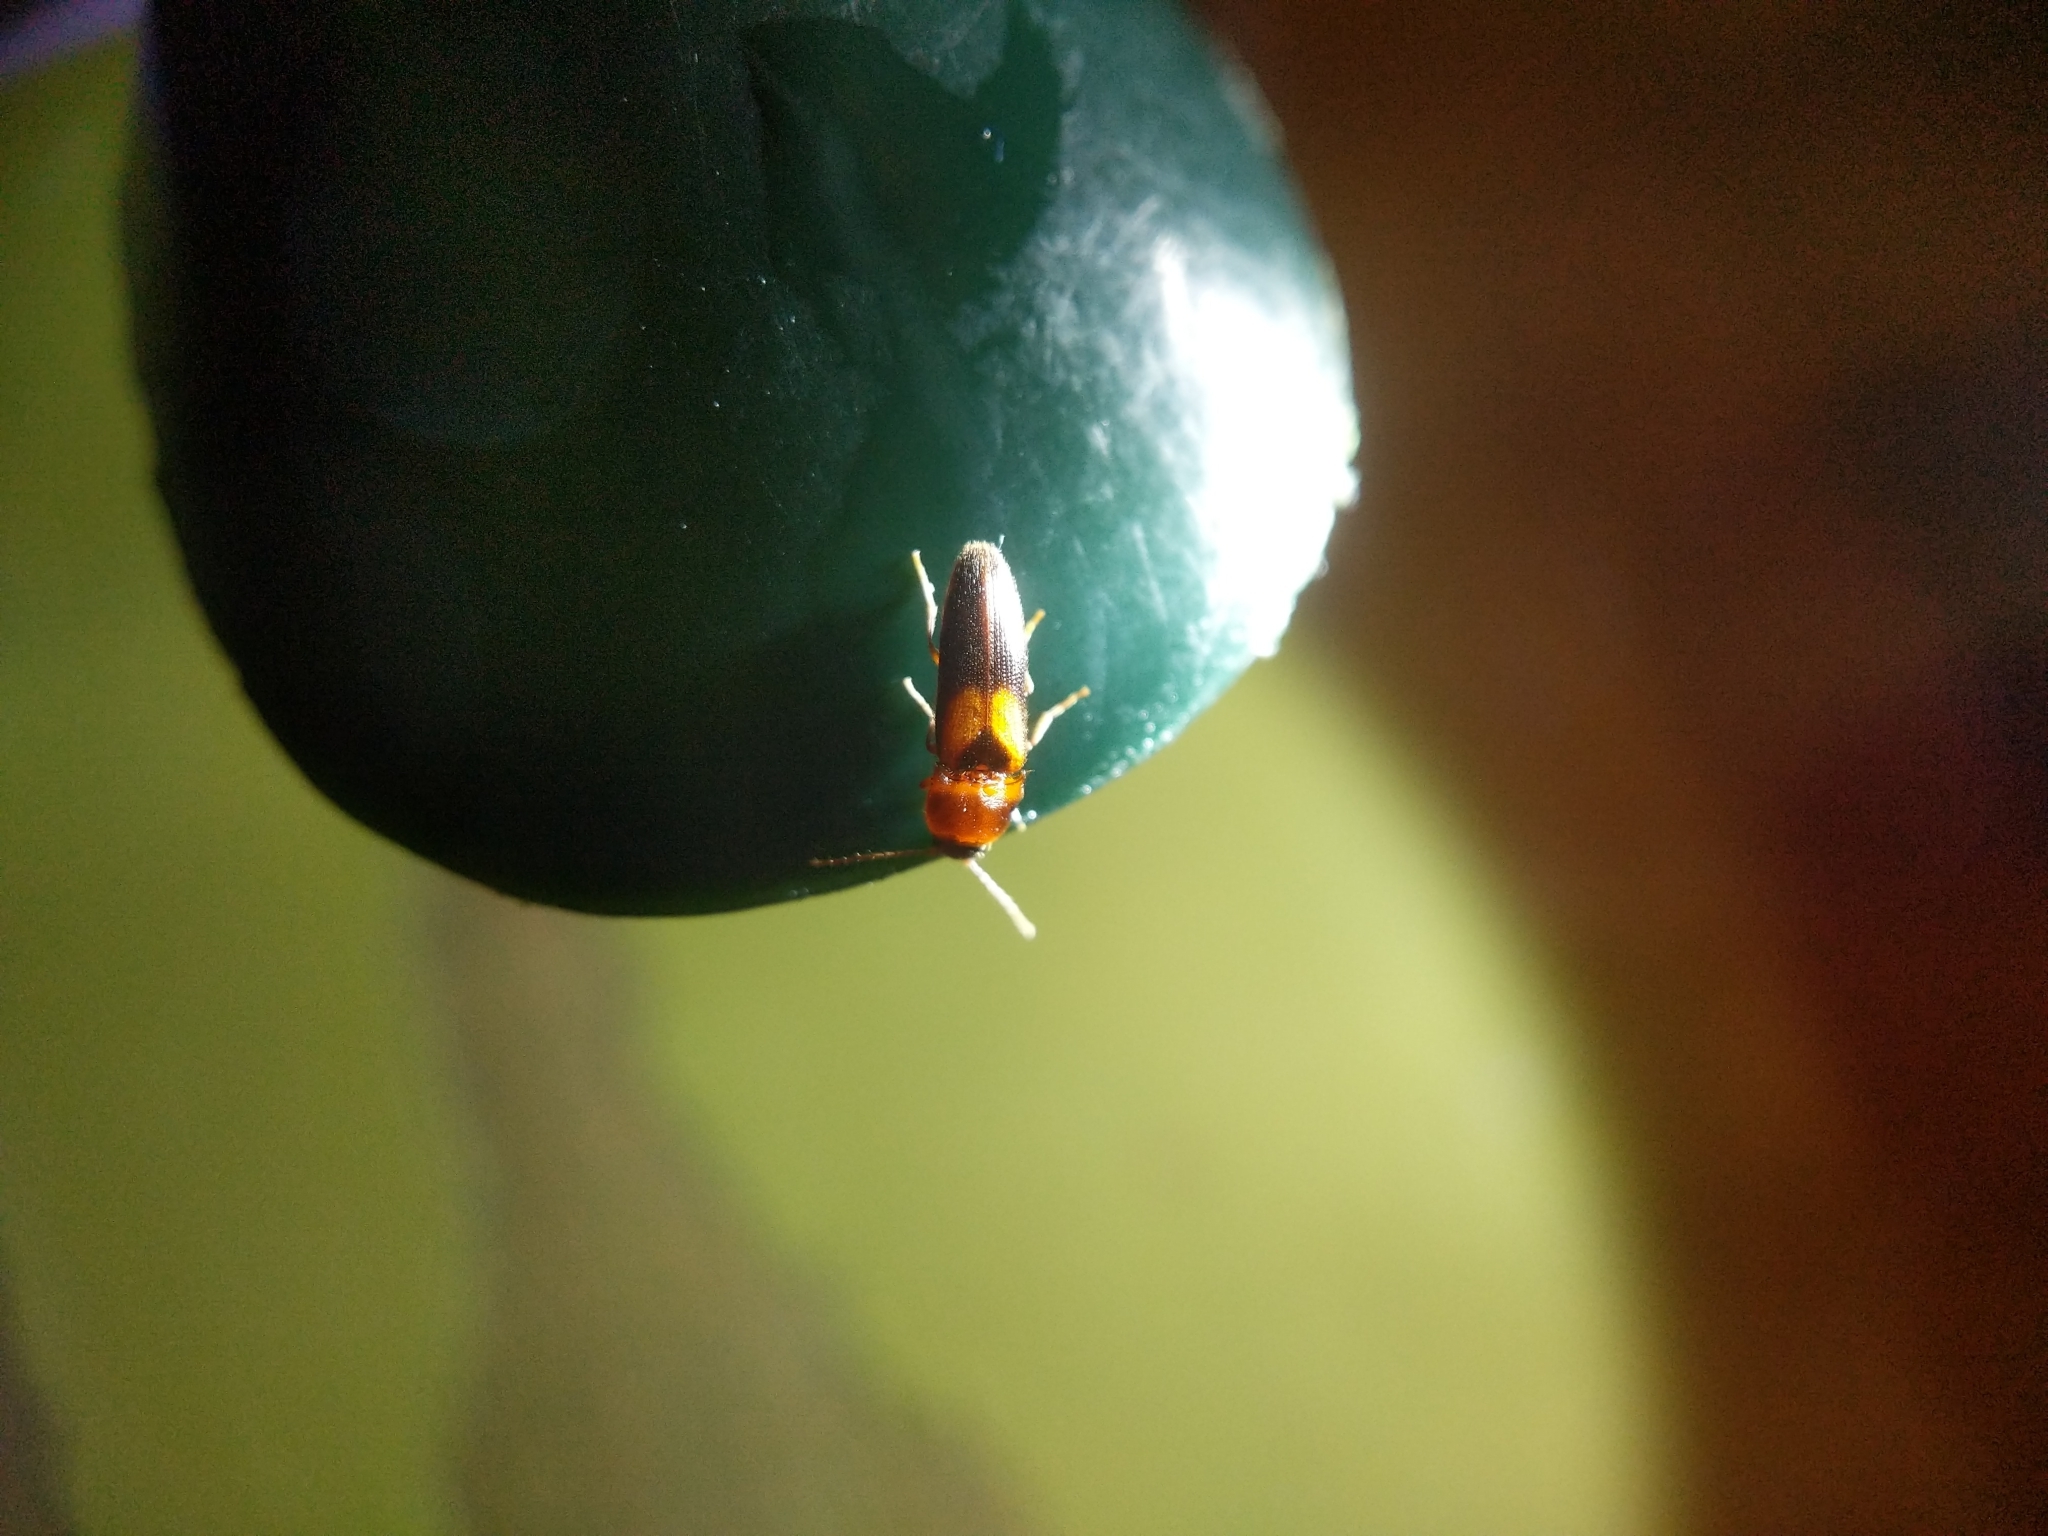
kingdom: Animalia
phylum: Arthropoda
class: Insecta
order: Coleoptera
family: Elateridae
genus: Ampedus
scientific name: Ampedus areolatus
